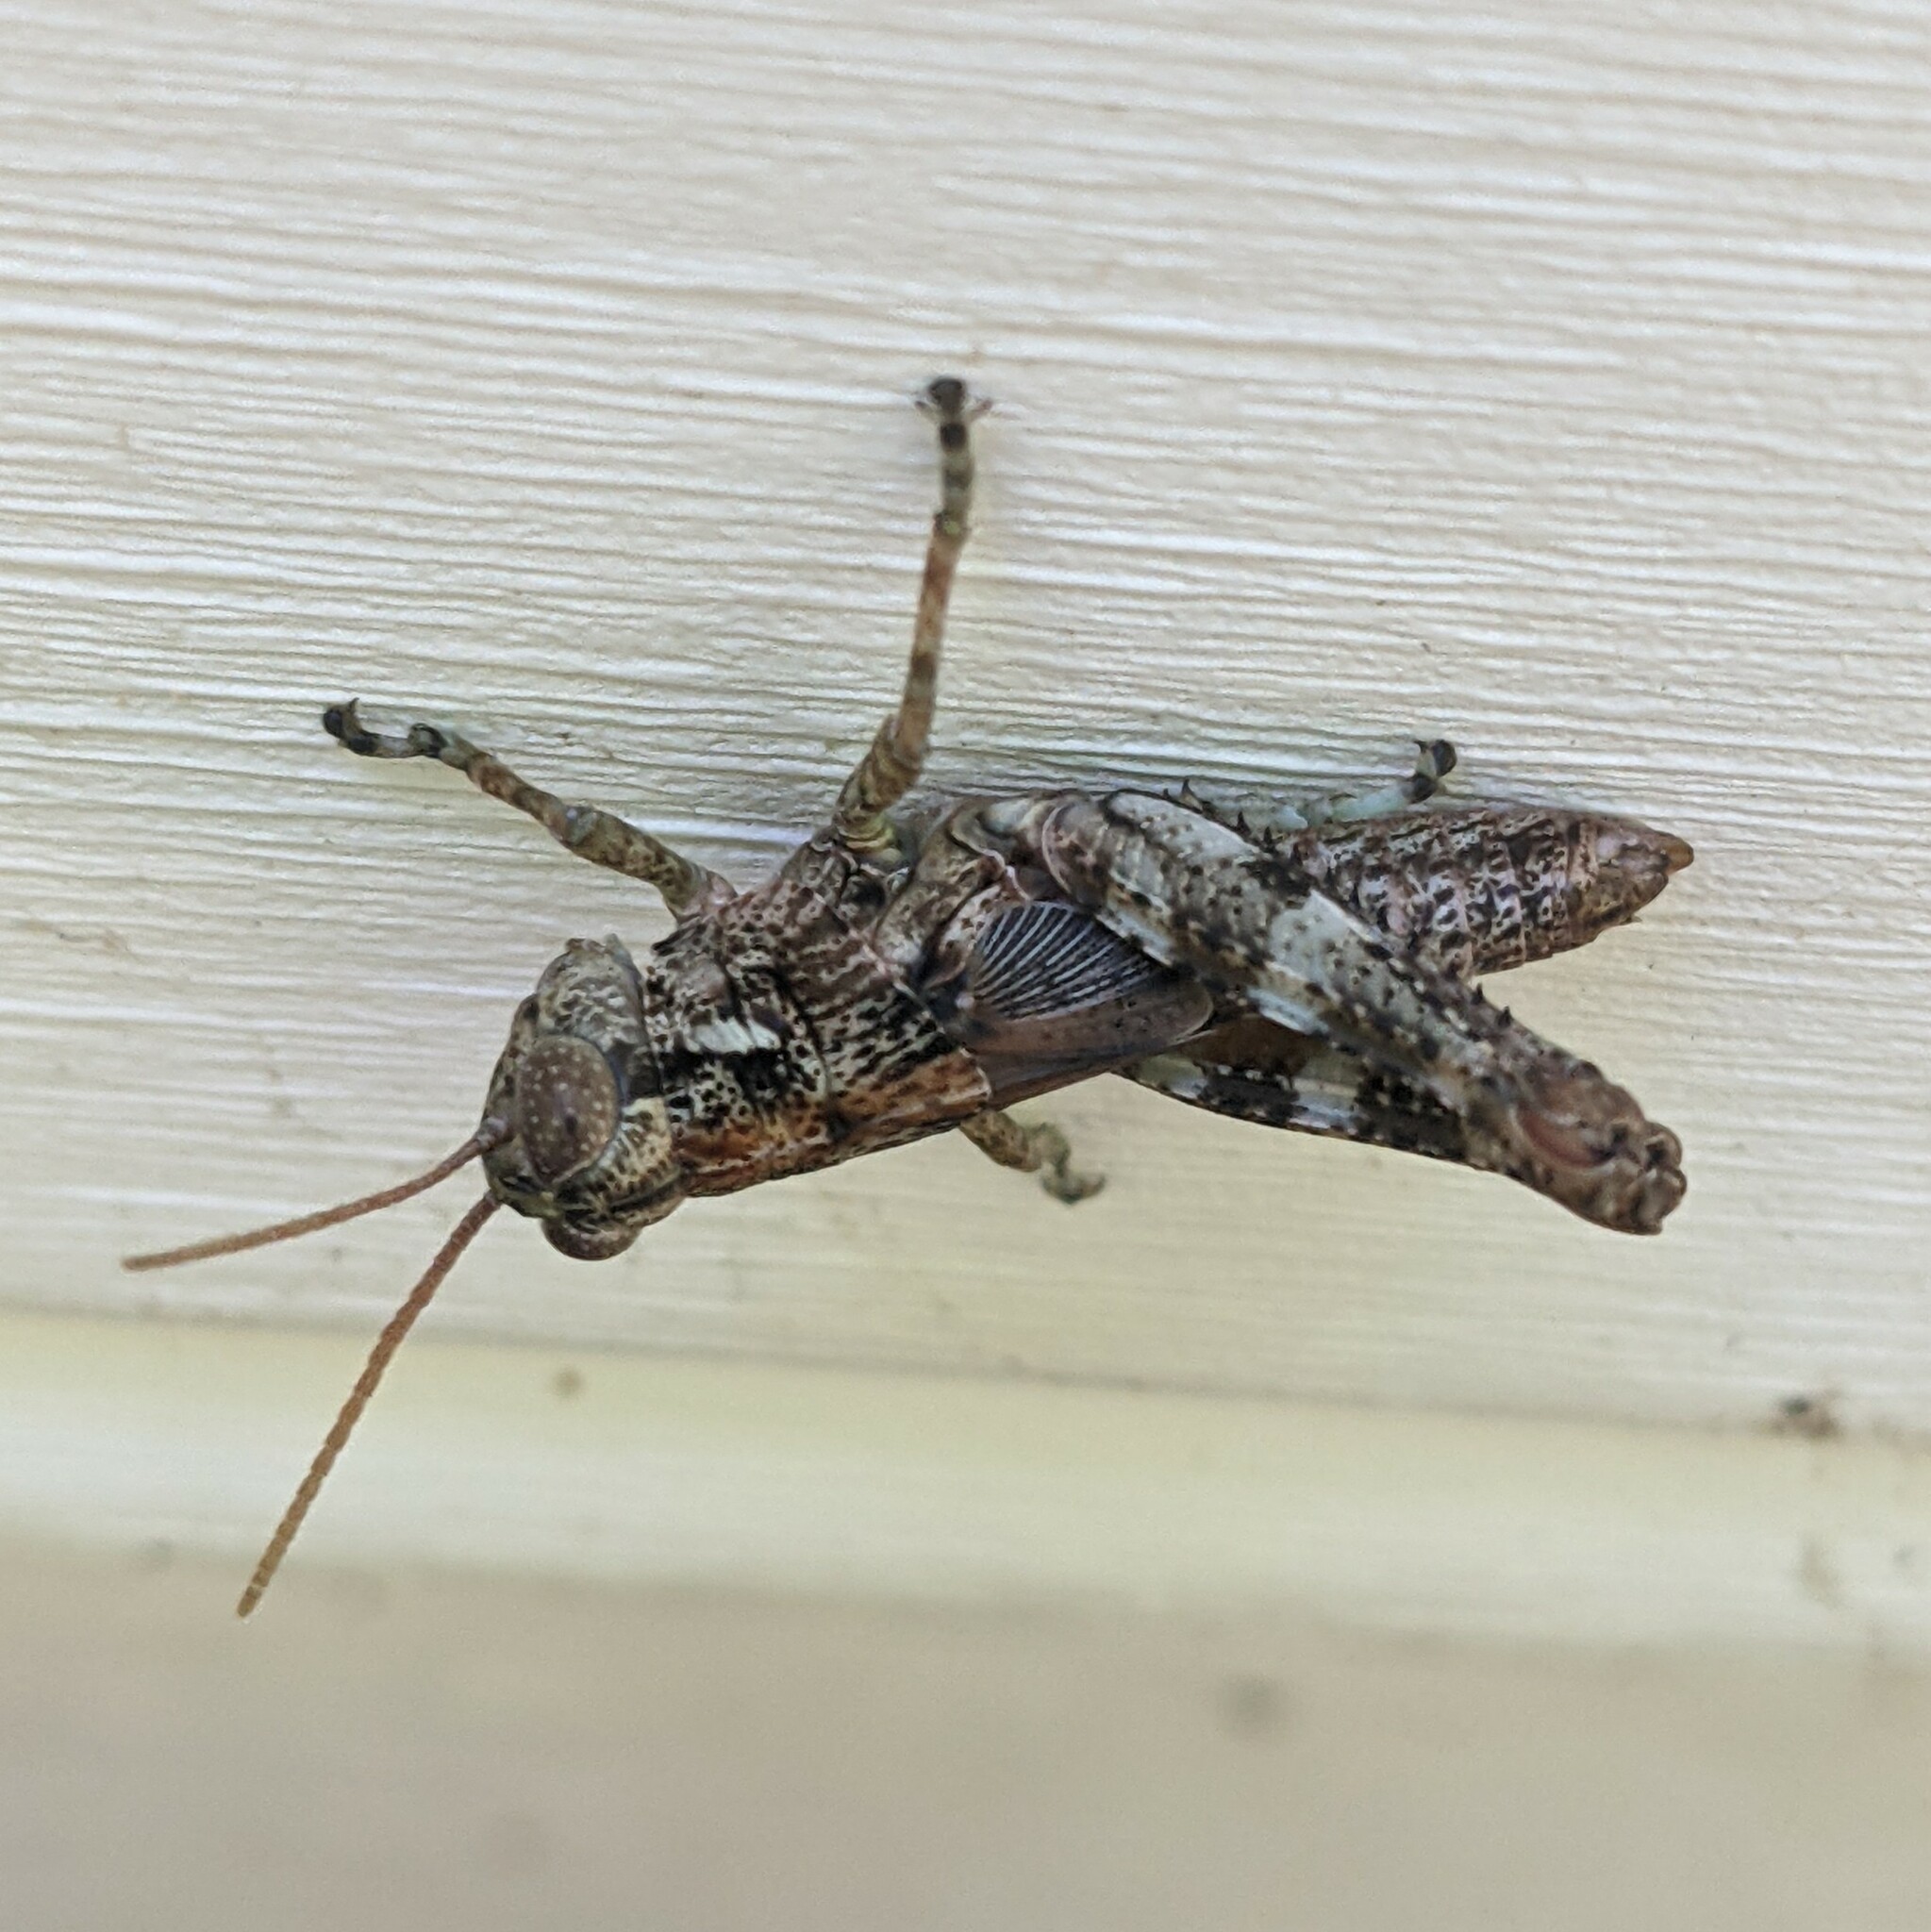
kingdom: Animalia
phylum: Arthropoda
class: Insecta
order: Orthoptera
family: Acrididae
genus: Melanoplus
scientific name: Melanoplus punctulatus
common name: Pine-tree spur-throat grasshopper
